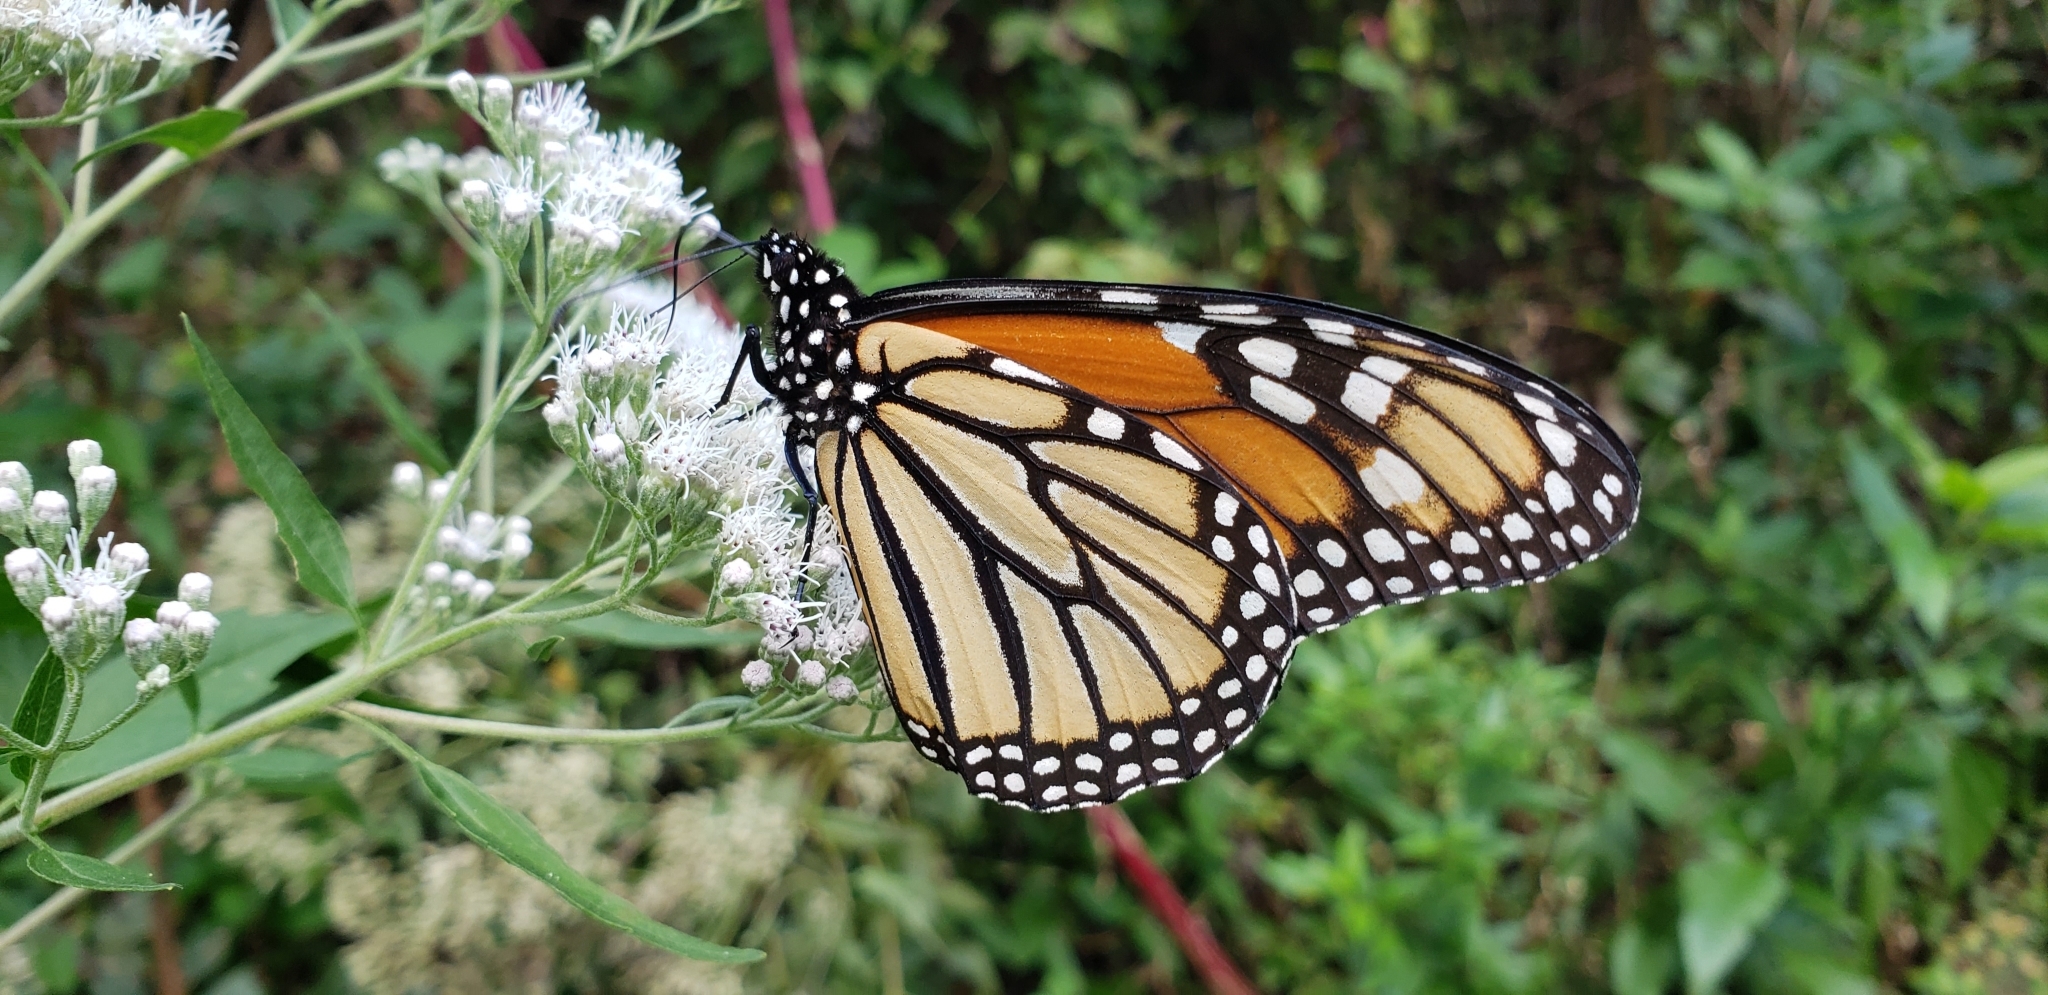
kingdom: Animalia
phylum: Arthropoda
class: Insecta
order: Lepidoptera
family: Nymphalidae
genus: Danaus
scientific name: Danaus plexippus
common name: Monarch
